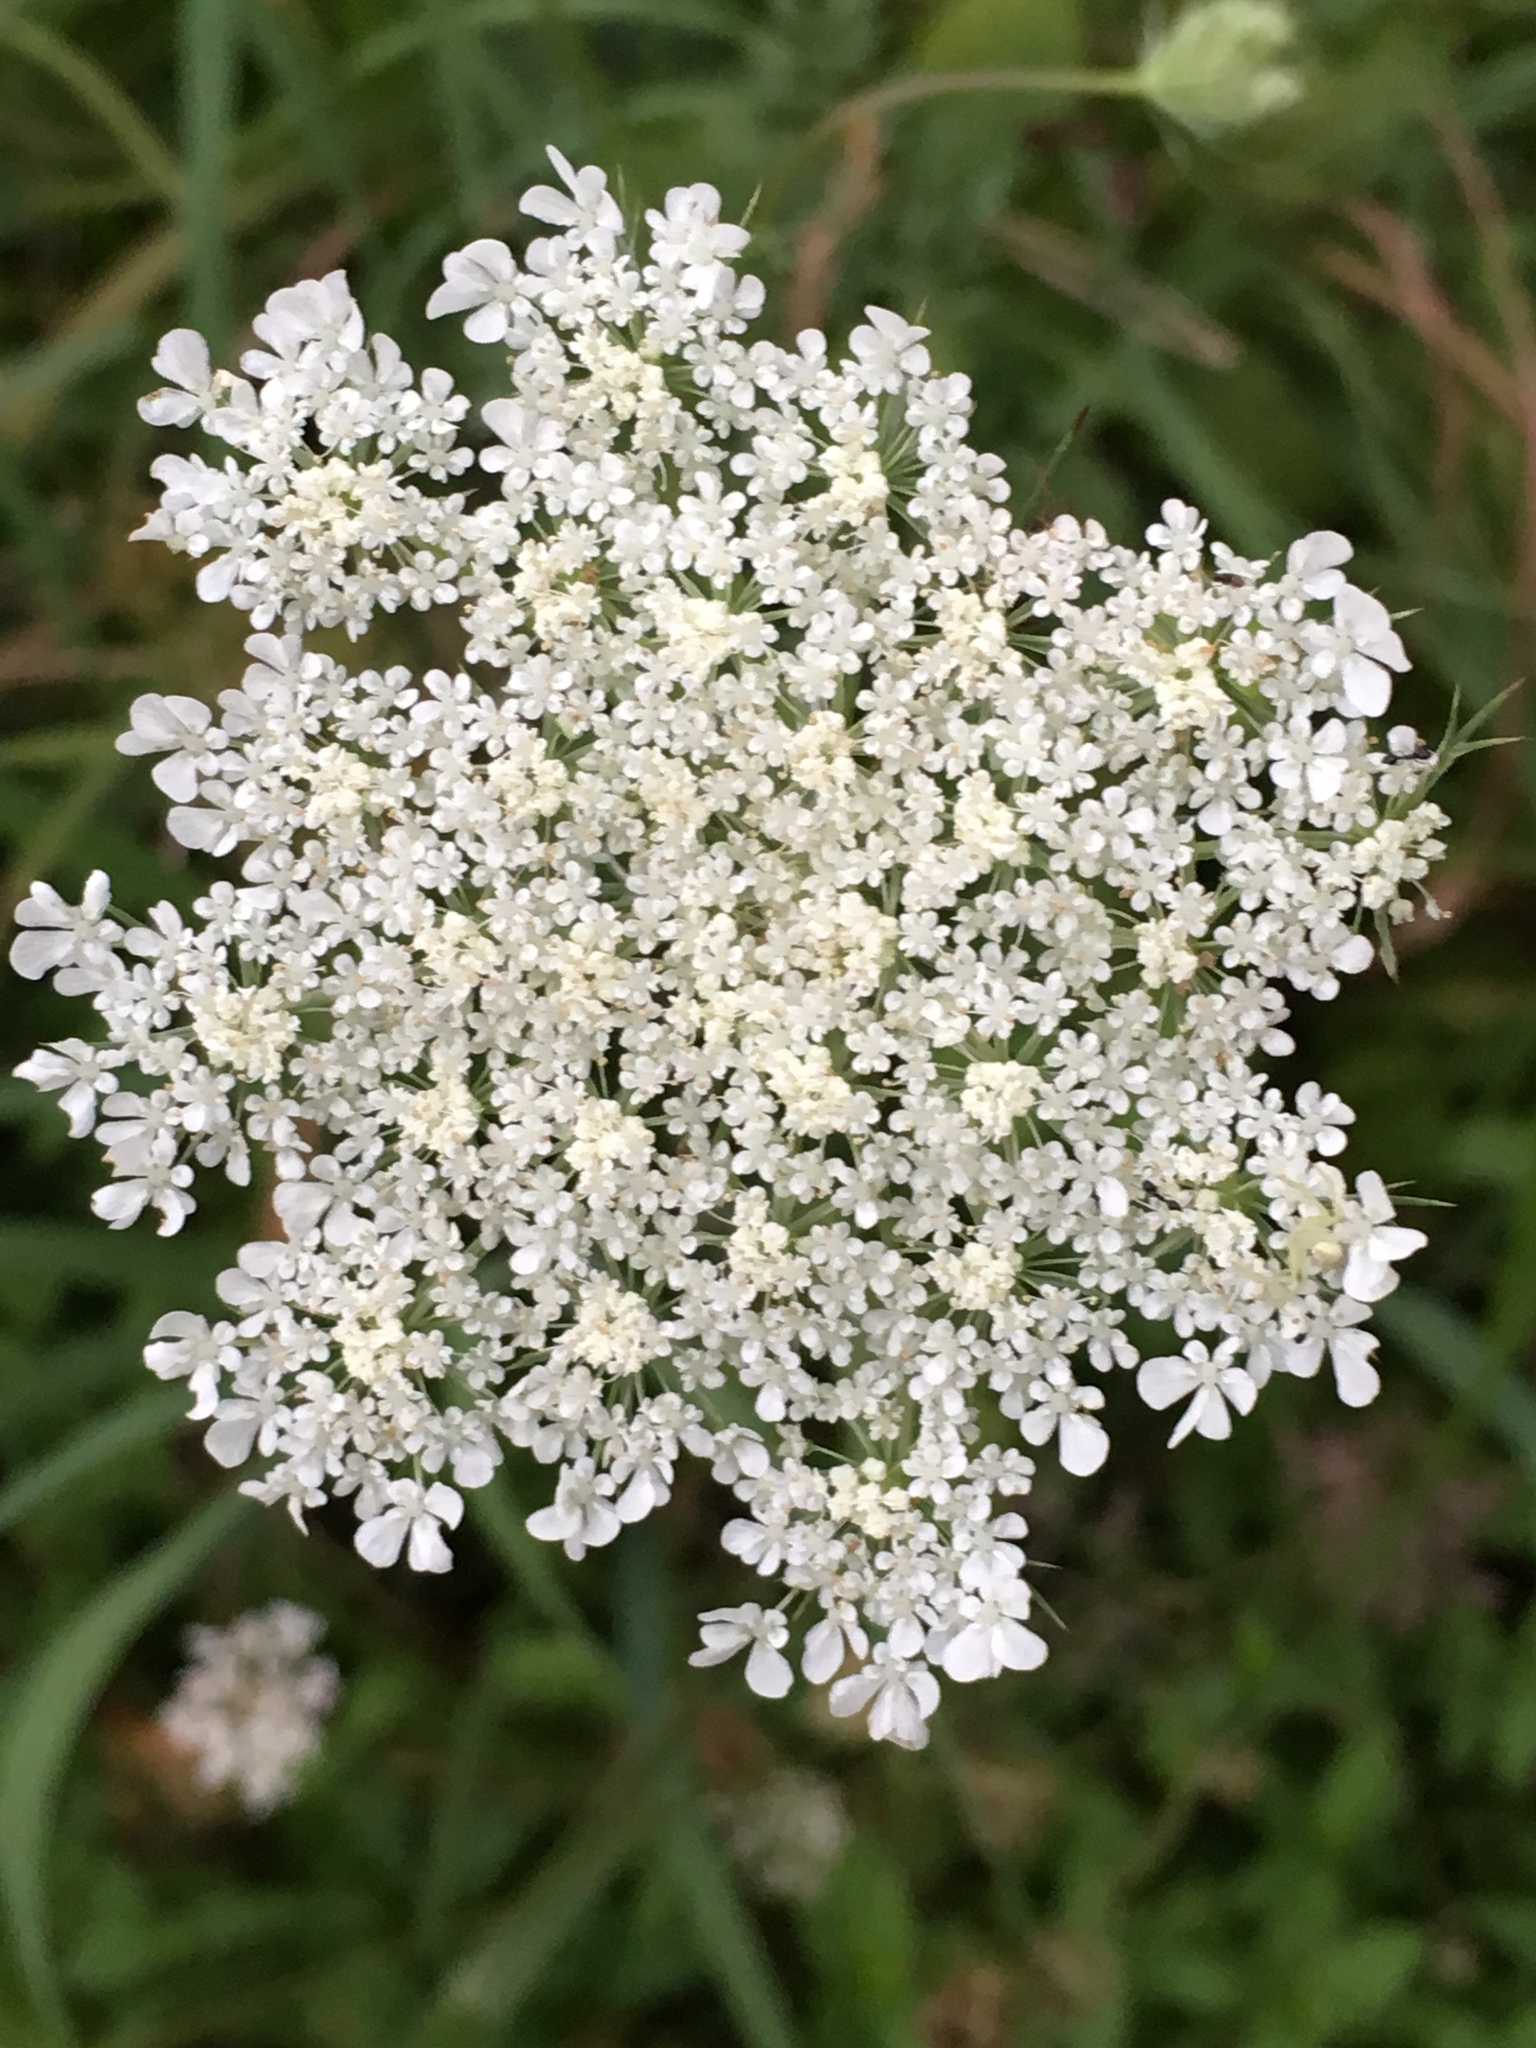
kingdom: Plantae
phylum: Tracheophyta
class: Magnoliopsida
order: Apiales
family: Apiaceae
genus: Daucus
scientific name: Daucus carota
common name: Wild carrot
